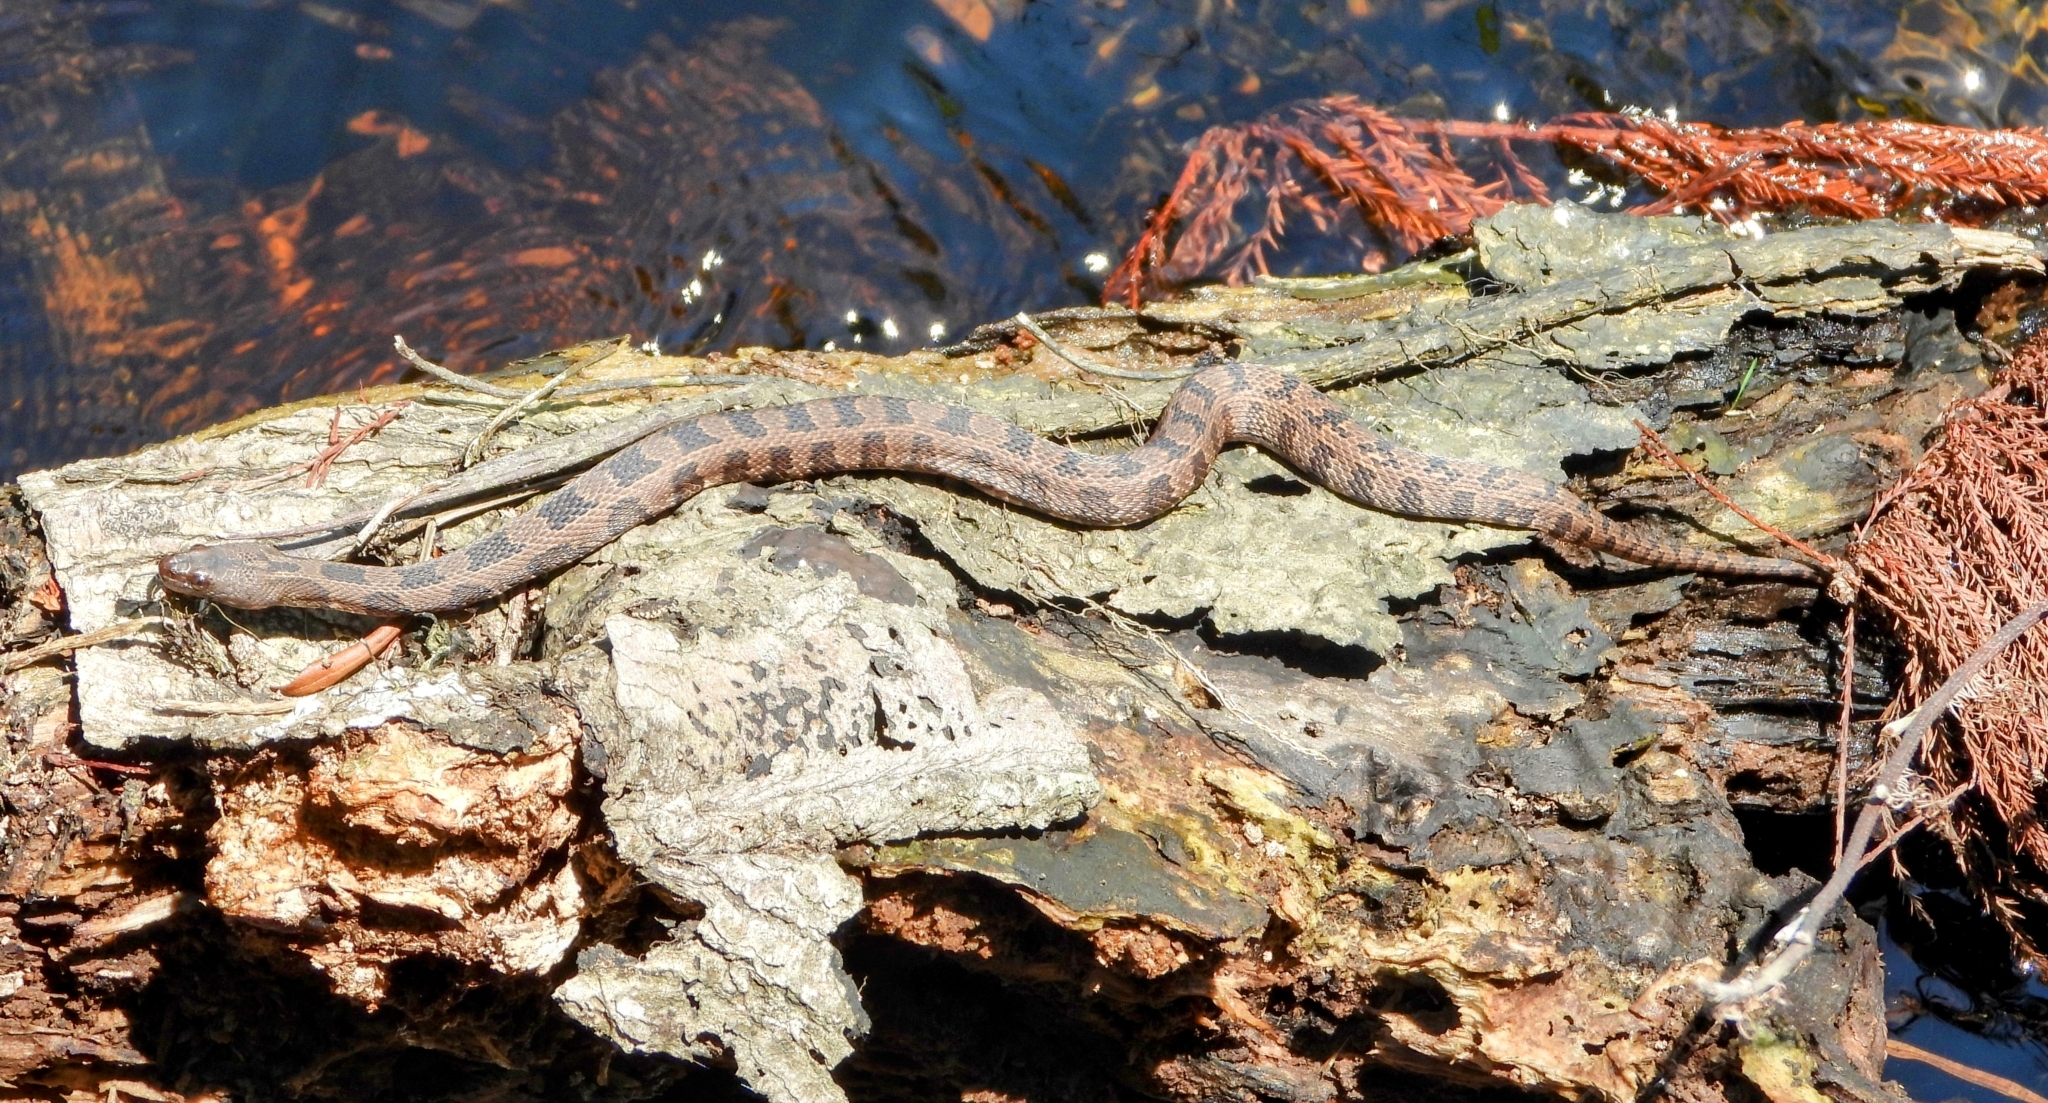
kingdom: Animalia
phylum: Chordata
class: Squamata
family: Colubridae
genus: Nerodia
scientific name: Nerodia taxispilota
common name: Brown water snake
